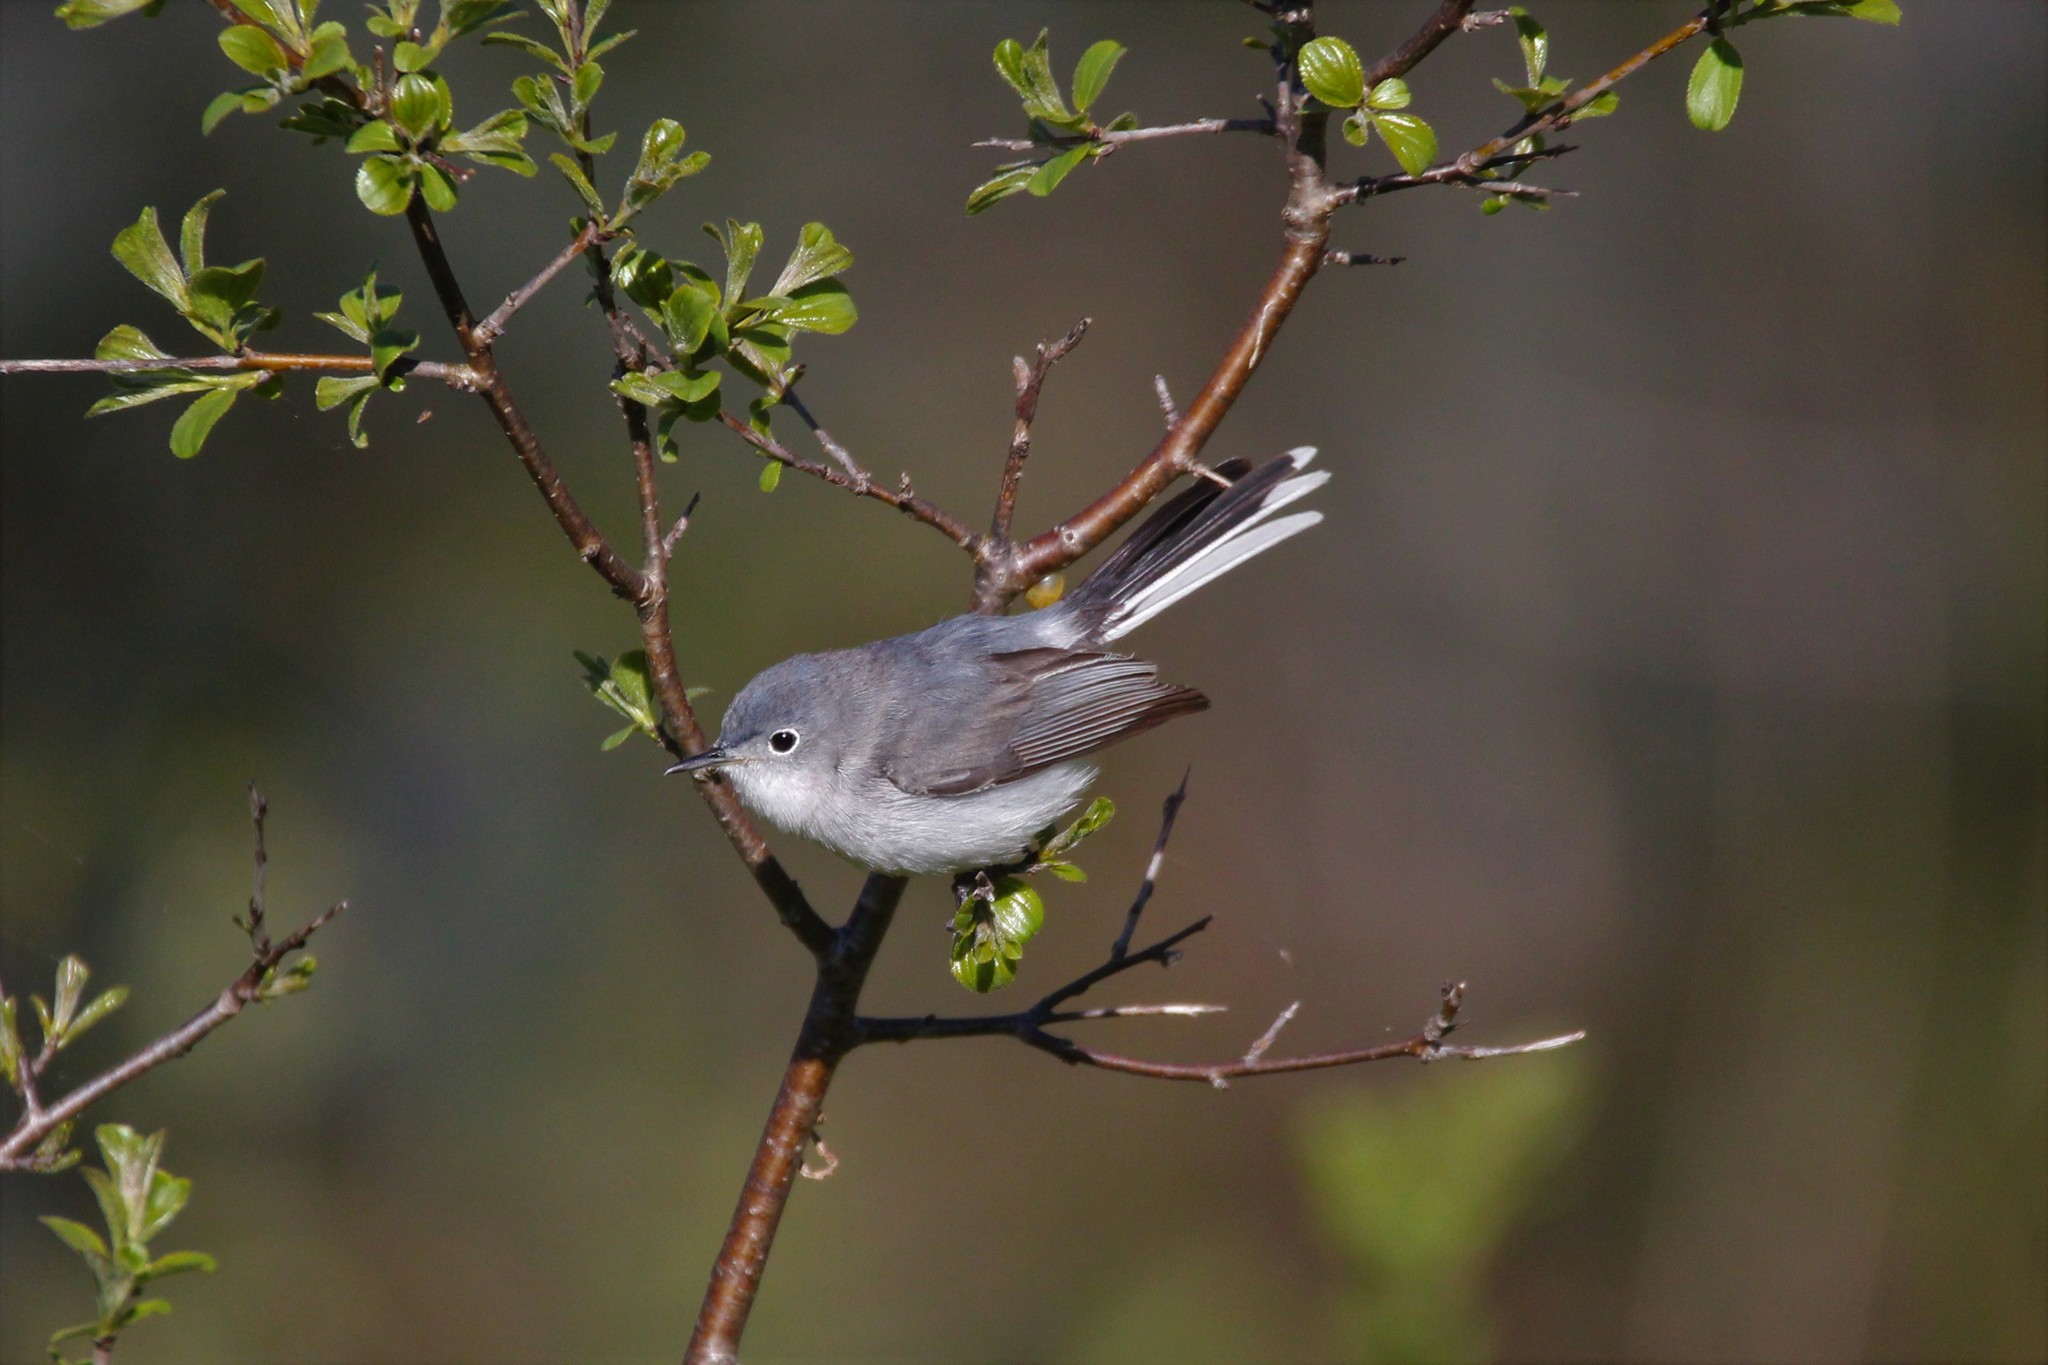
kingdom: Animalia
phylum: Chordata
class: Aves
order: Passeriformes
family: Polioptilidae
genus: Polioptila
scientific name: Polioptila caerulea
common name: Blue-gray gnatcatcher
